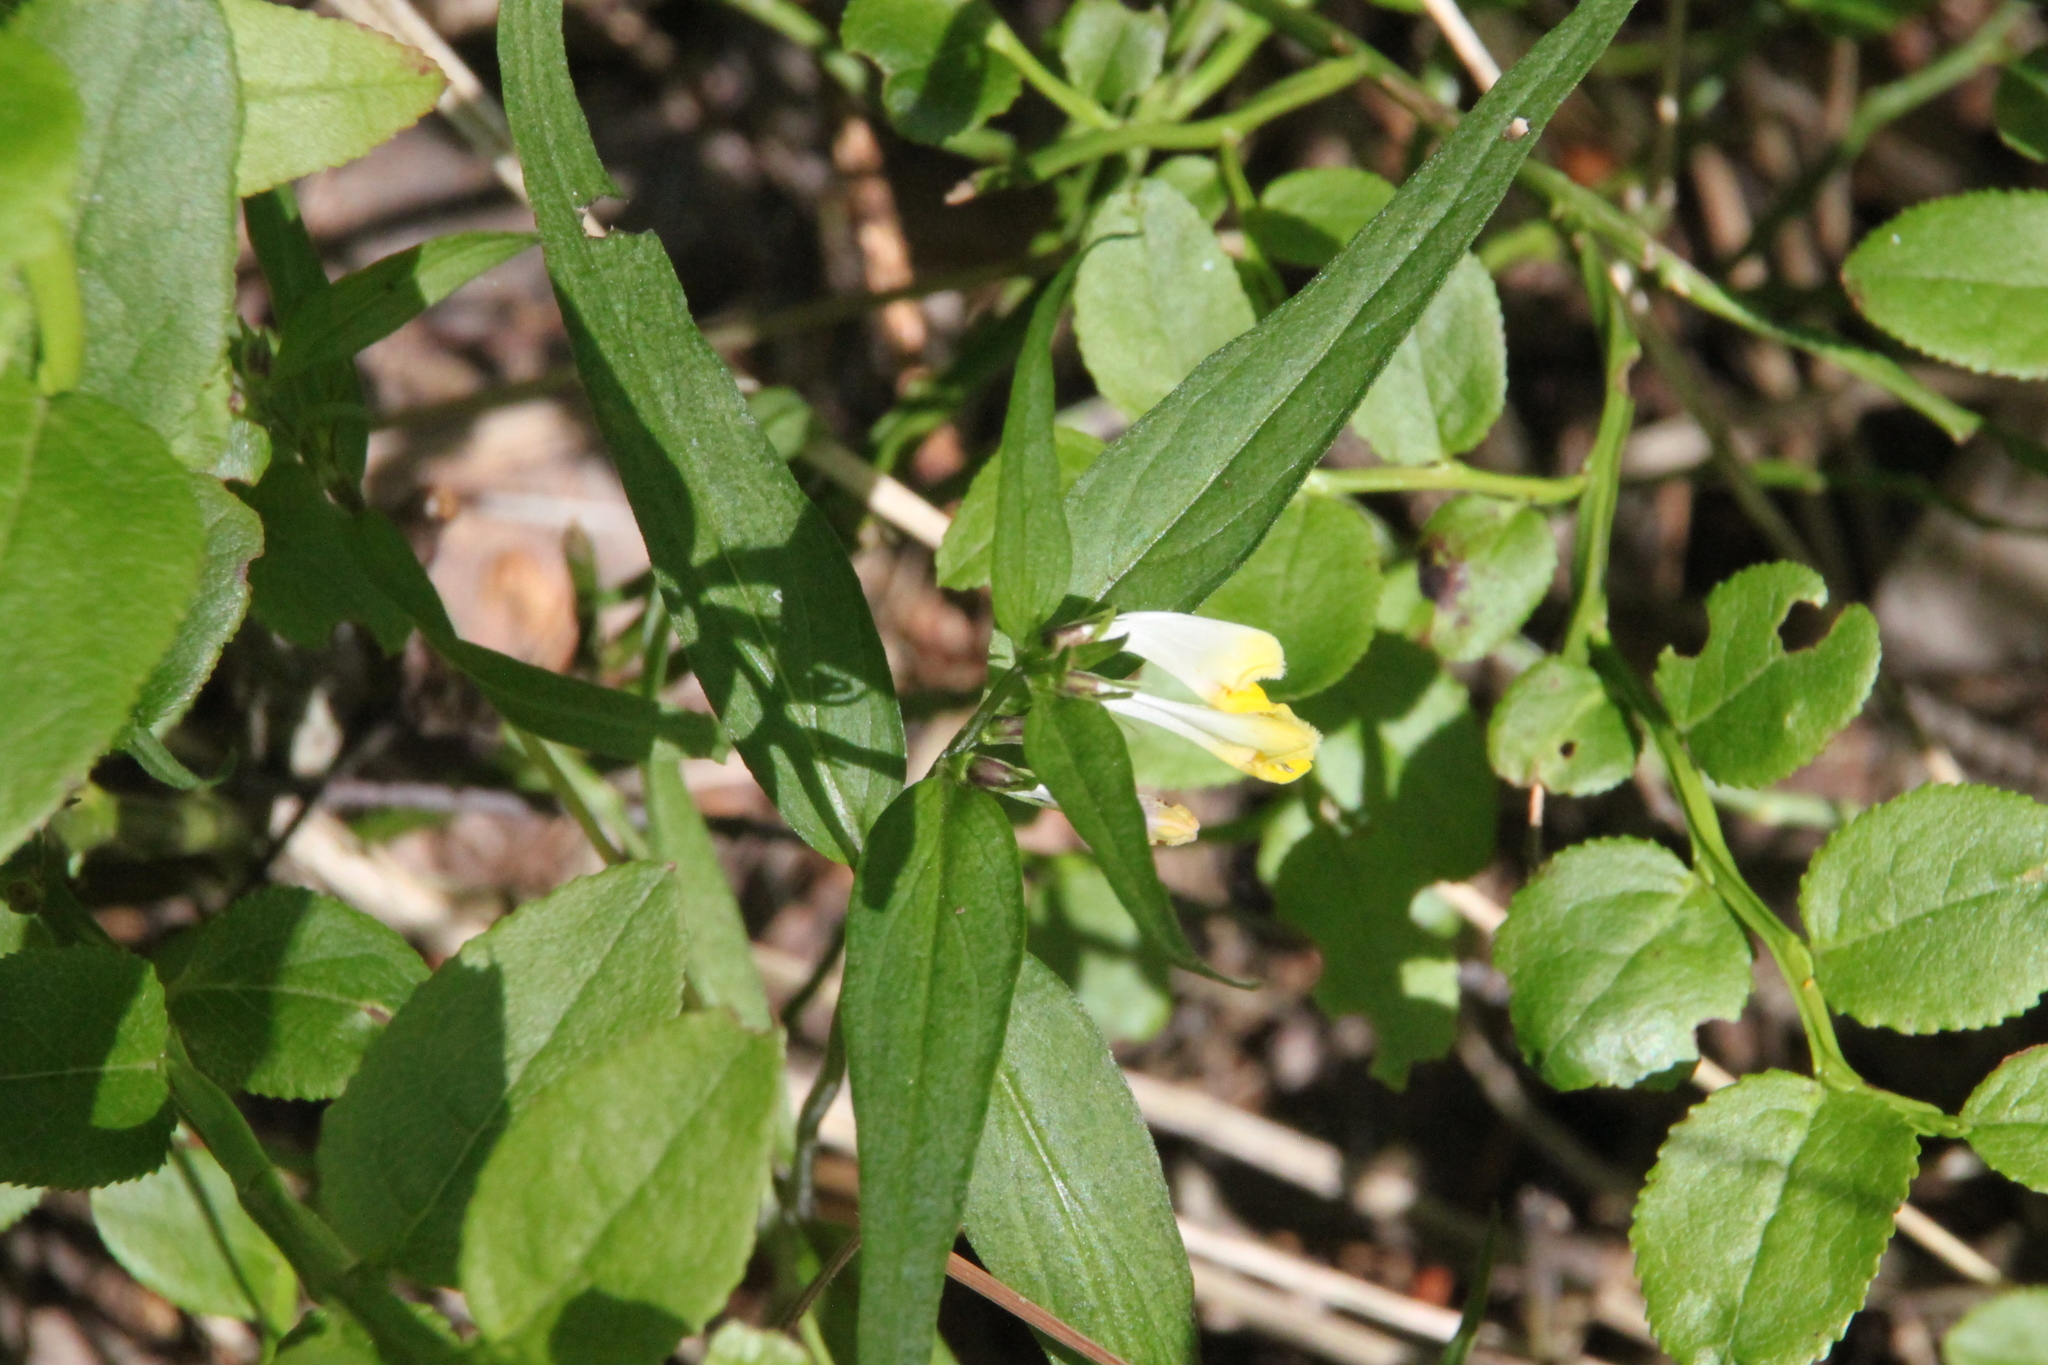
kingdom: Plantae
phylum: Tracheophyta
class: Magnoliopsida
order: Lamiales
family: Orobanchaceae
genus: Melampyrum
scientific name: Melampyrum pratense
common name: Common cow-wheat
